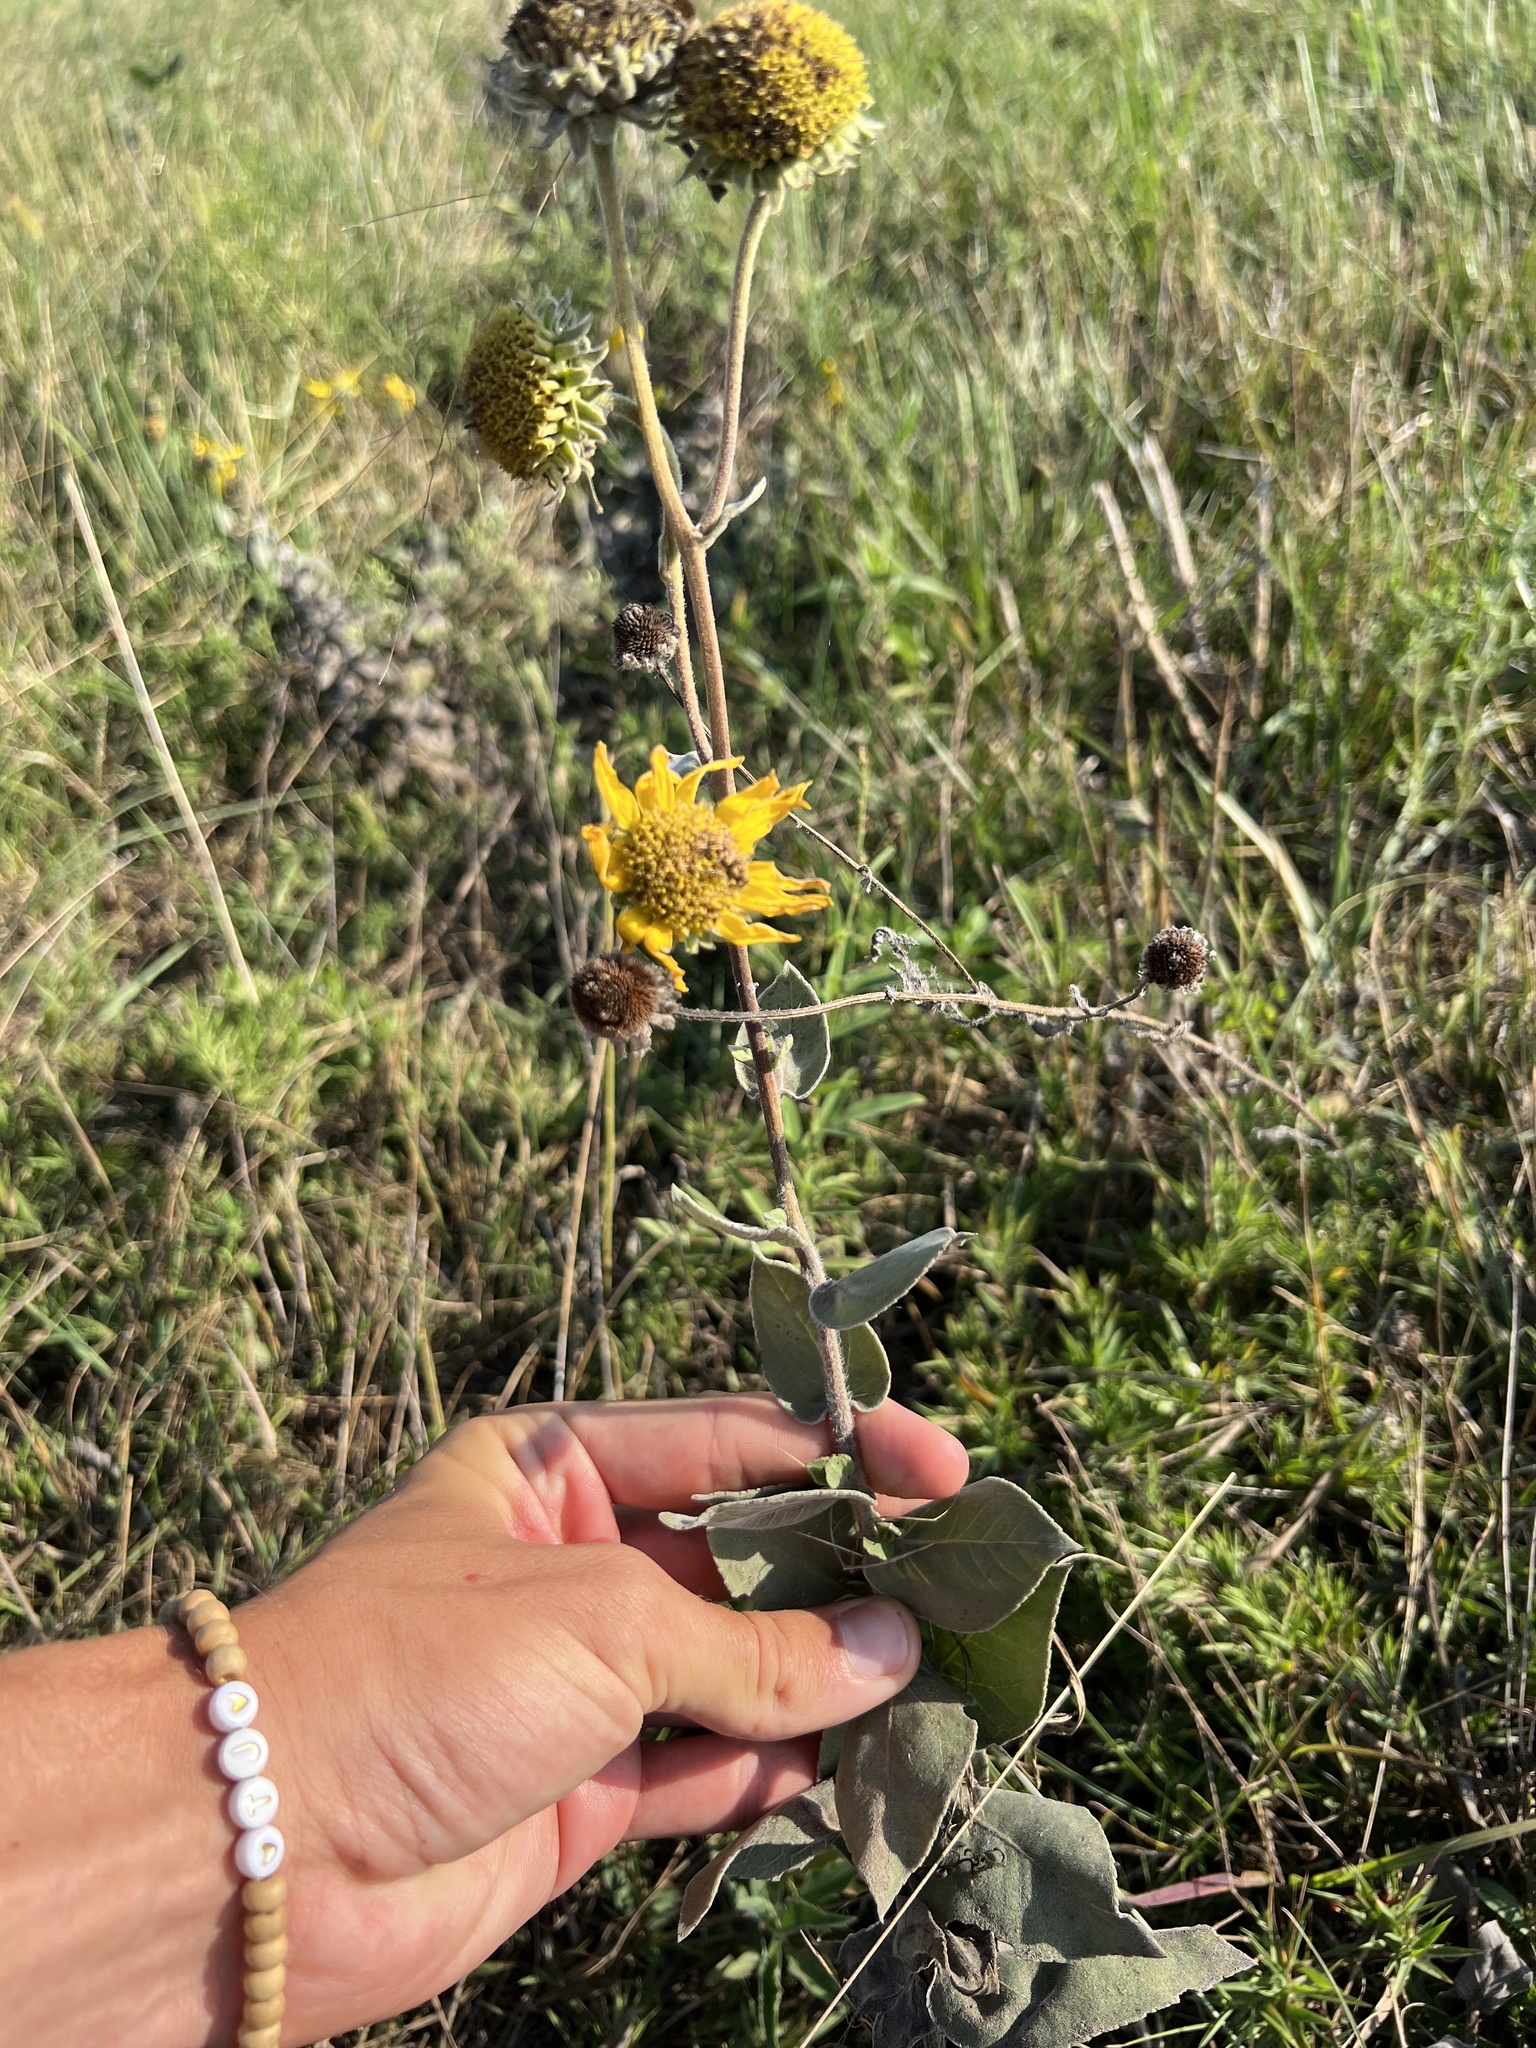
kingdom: Plantae
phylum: Tracheophyta
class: Magnoliopsida
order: Asterales
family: Asteraceae
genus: Helianthus
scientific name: Helianthus mollis
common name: Ashy sunflower
